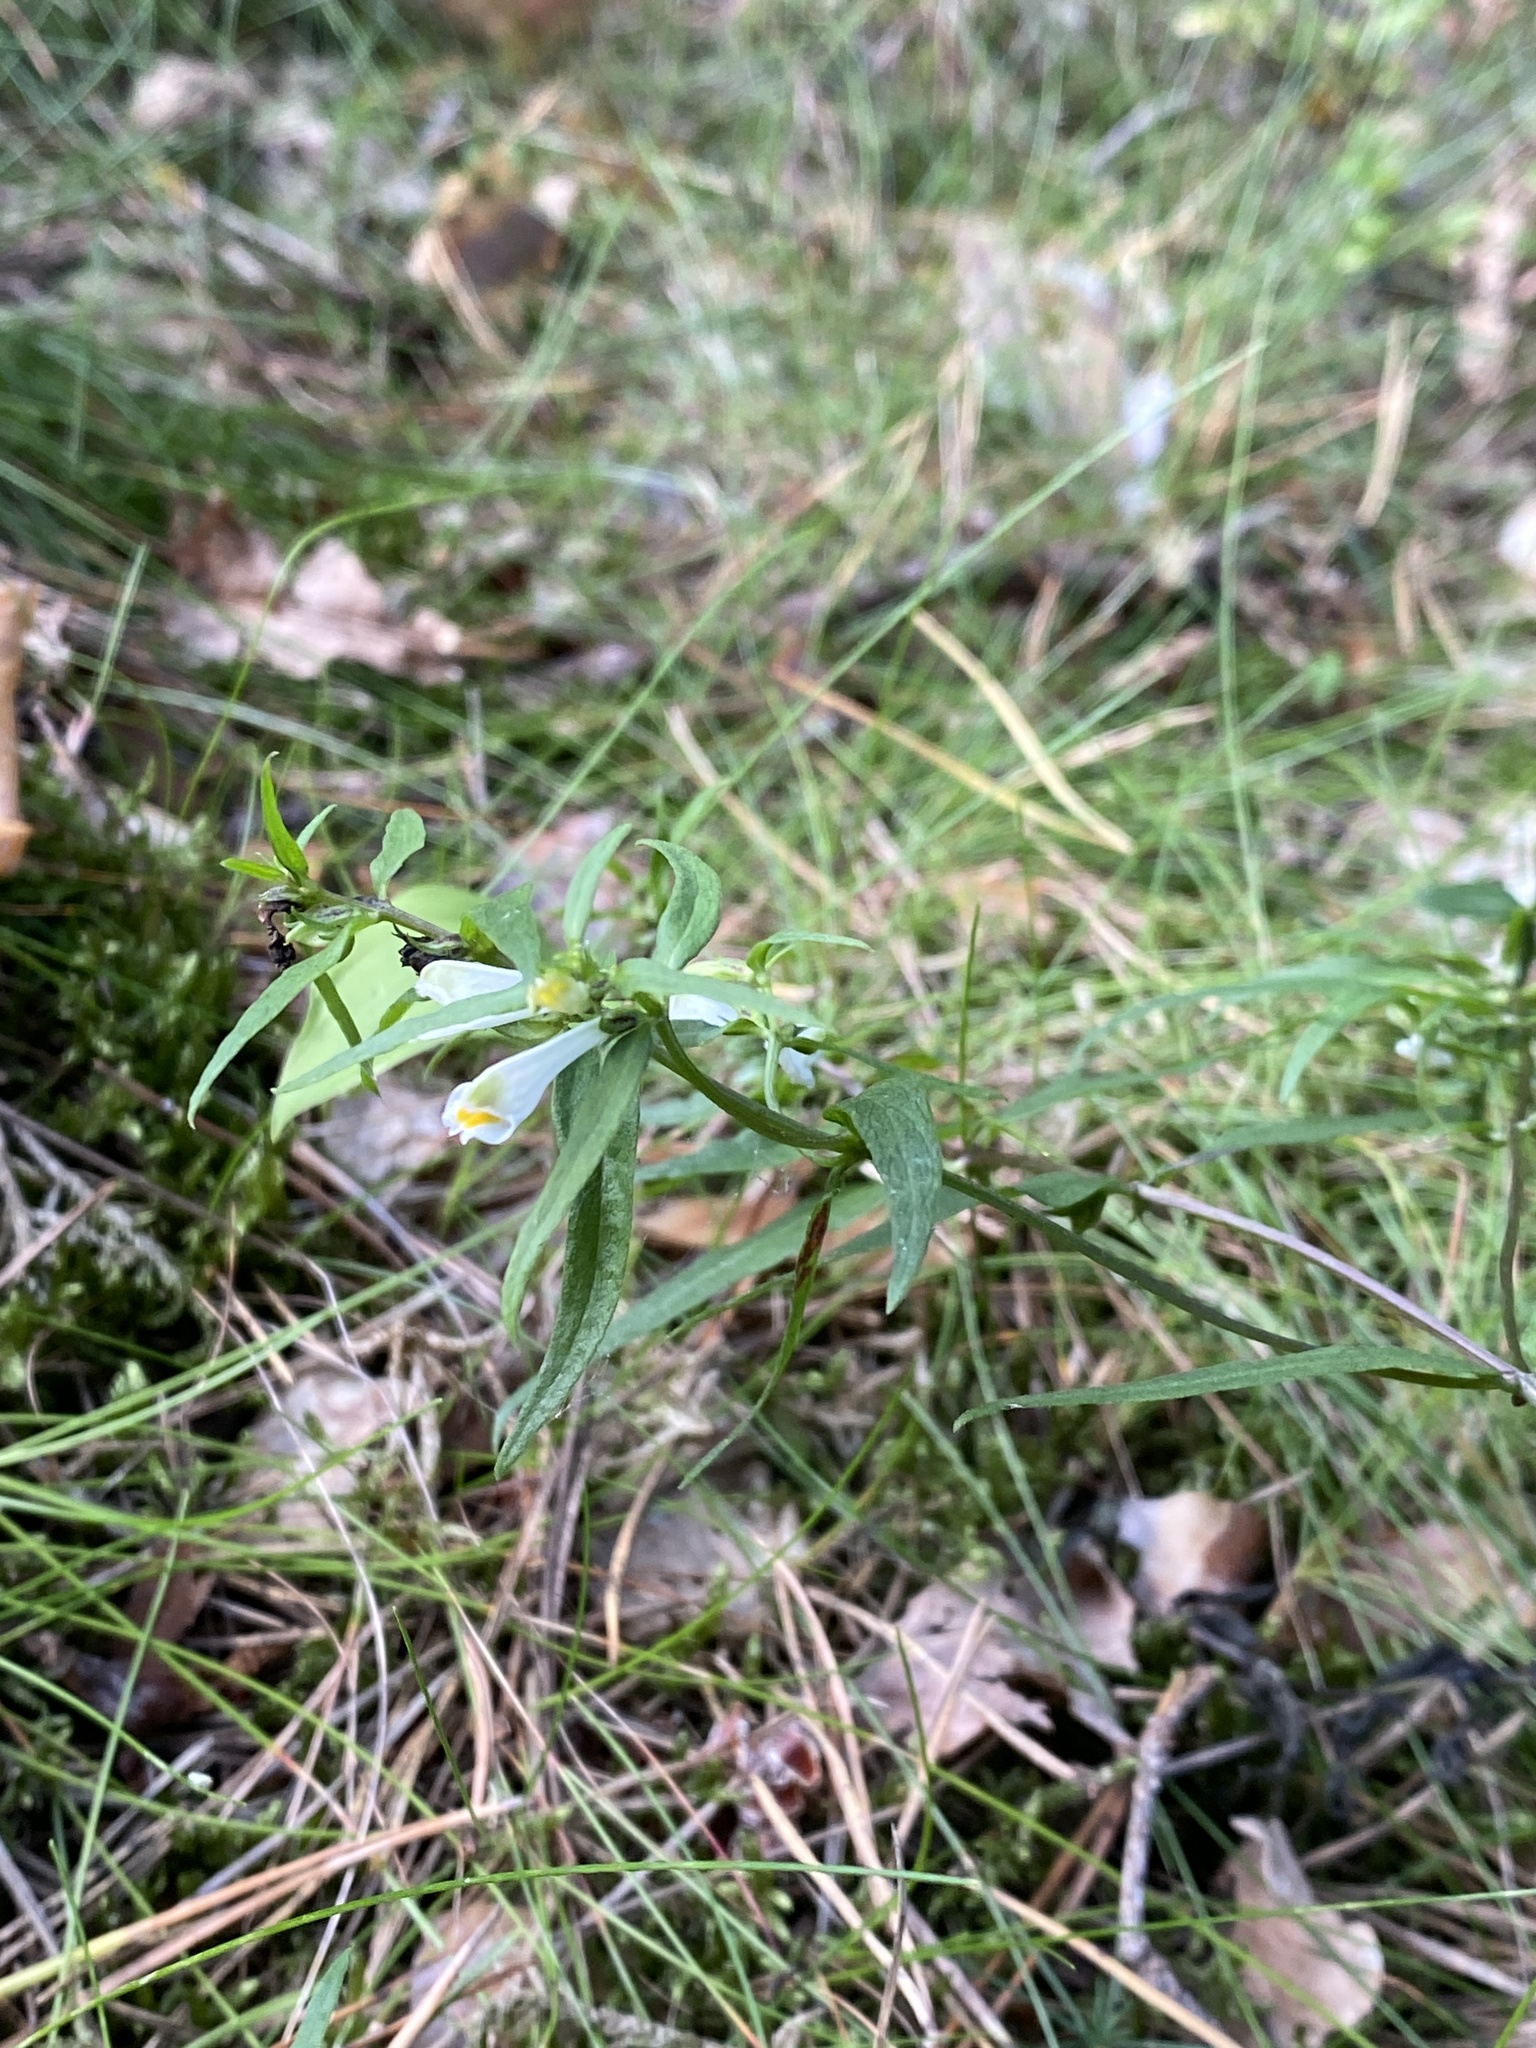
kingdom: Plantae
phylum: Tracheophyta
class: Magnoliopsida
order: Lamiales
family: Orobanchaceae
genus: Melampyrum
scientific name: Melampyrum pratense
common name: Common cow-wheat
